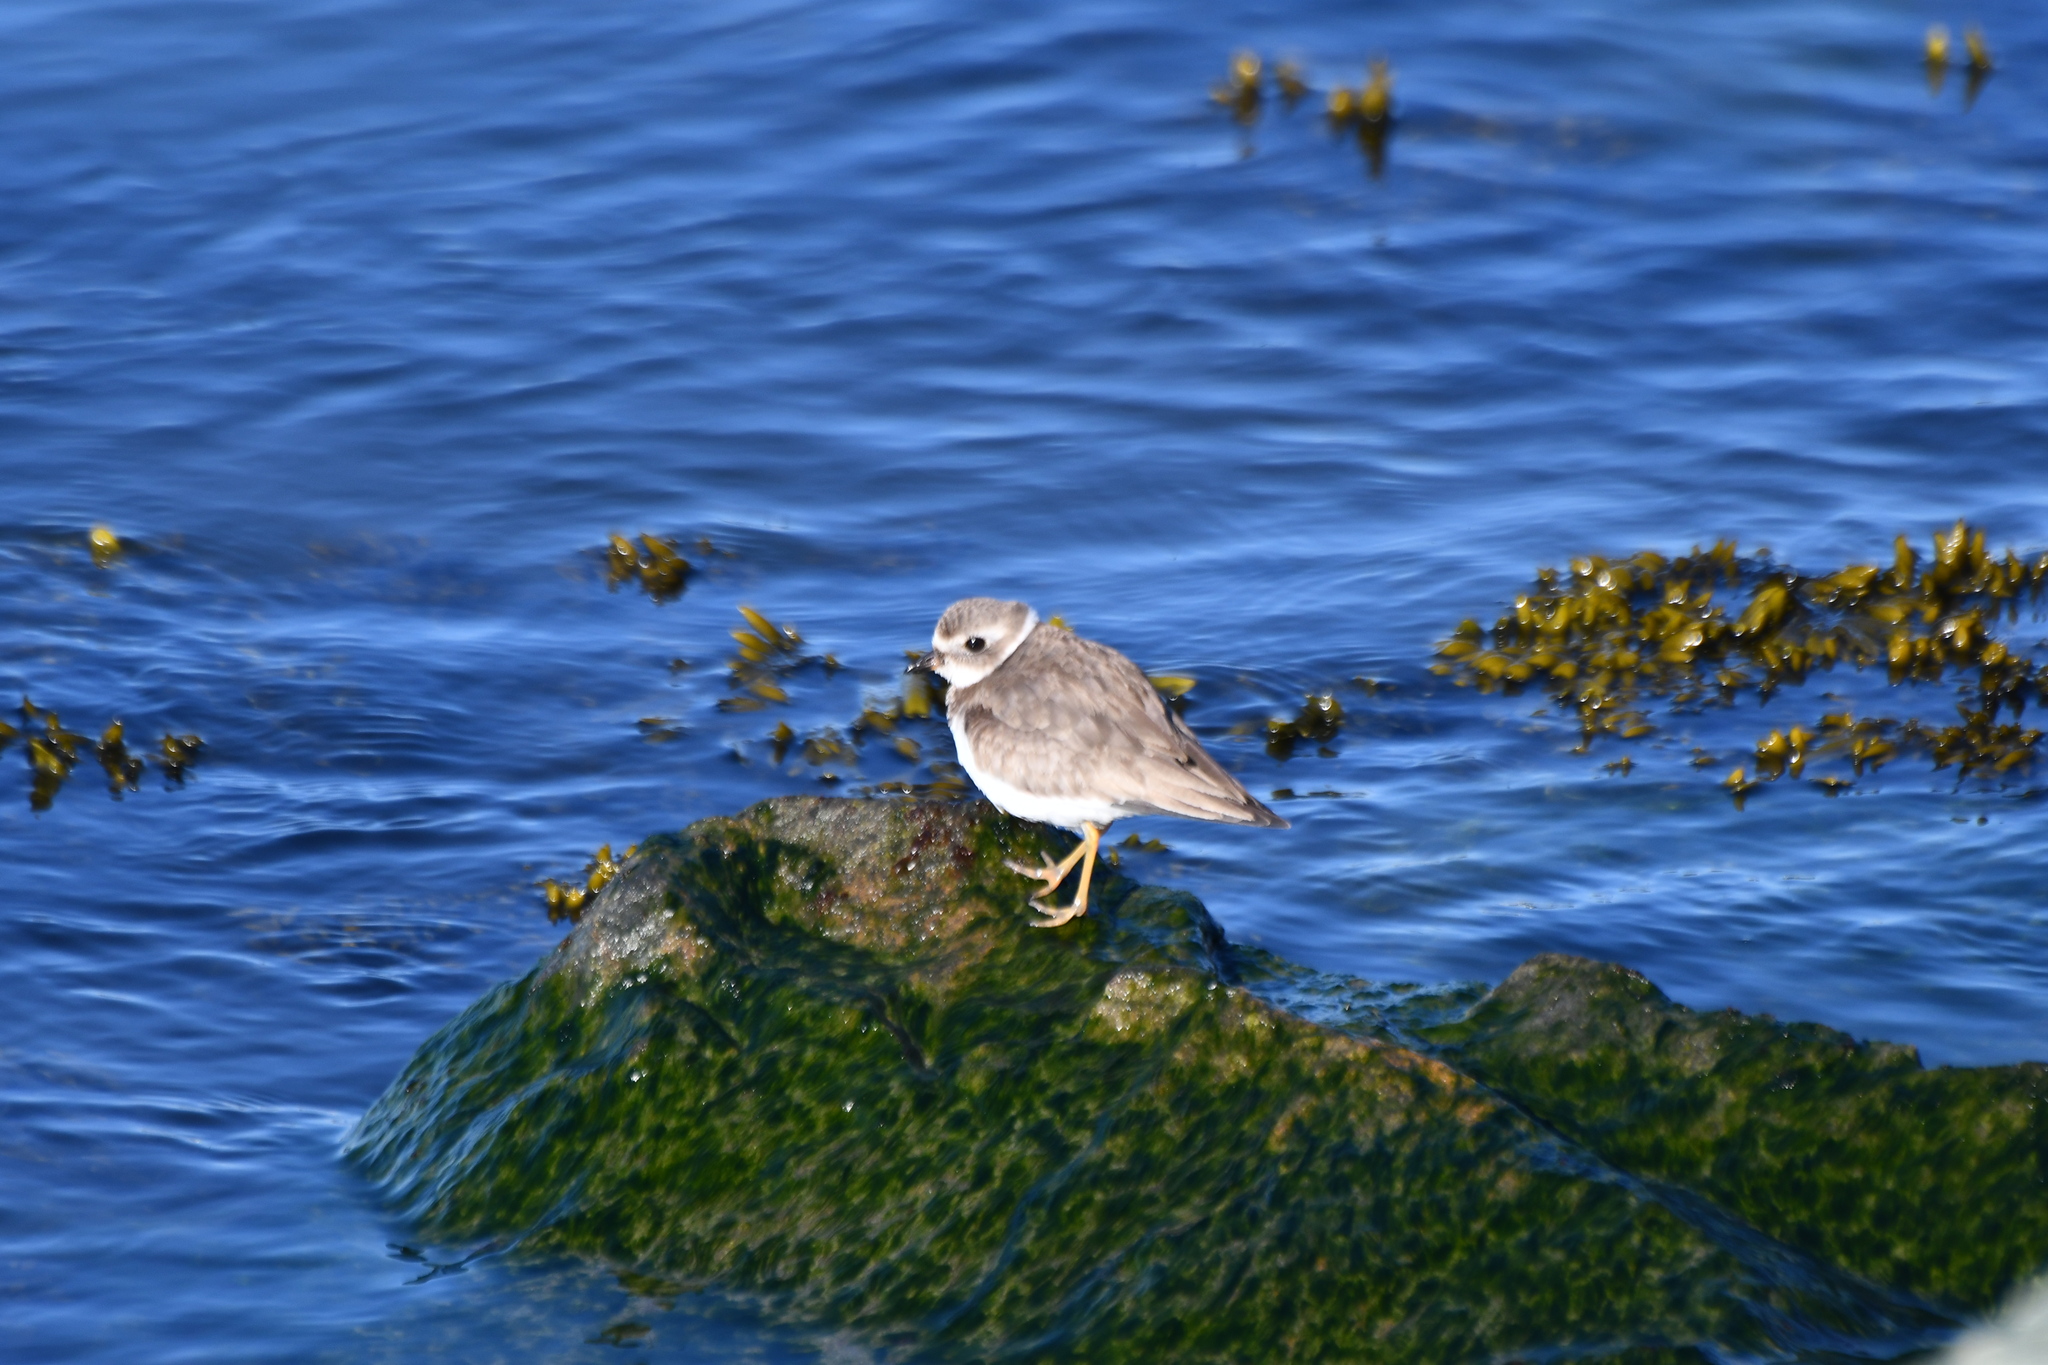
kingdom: Animalia
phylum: Chordata
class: Aves
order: Charadriiformes
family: Charadriidae
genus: Charadrius
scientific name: Charadrius semipalmatus
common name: Semipalmated plover
